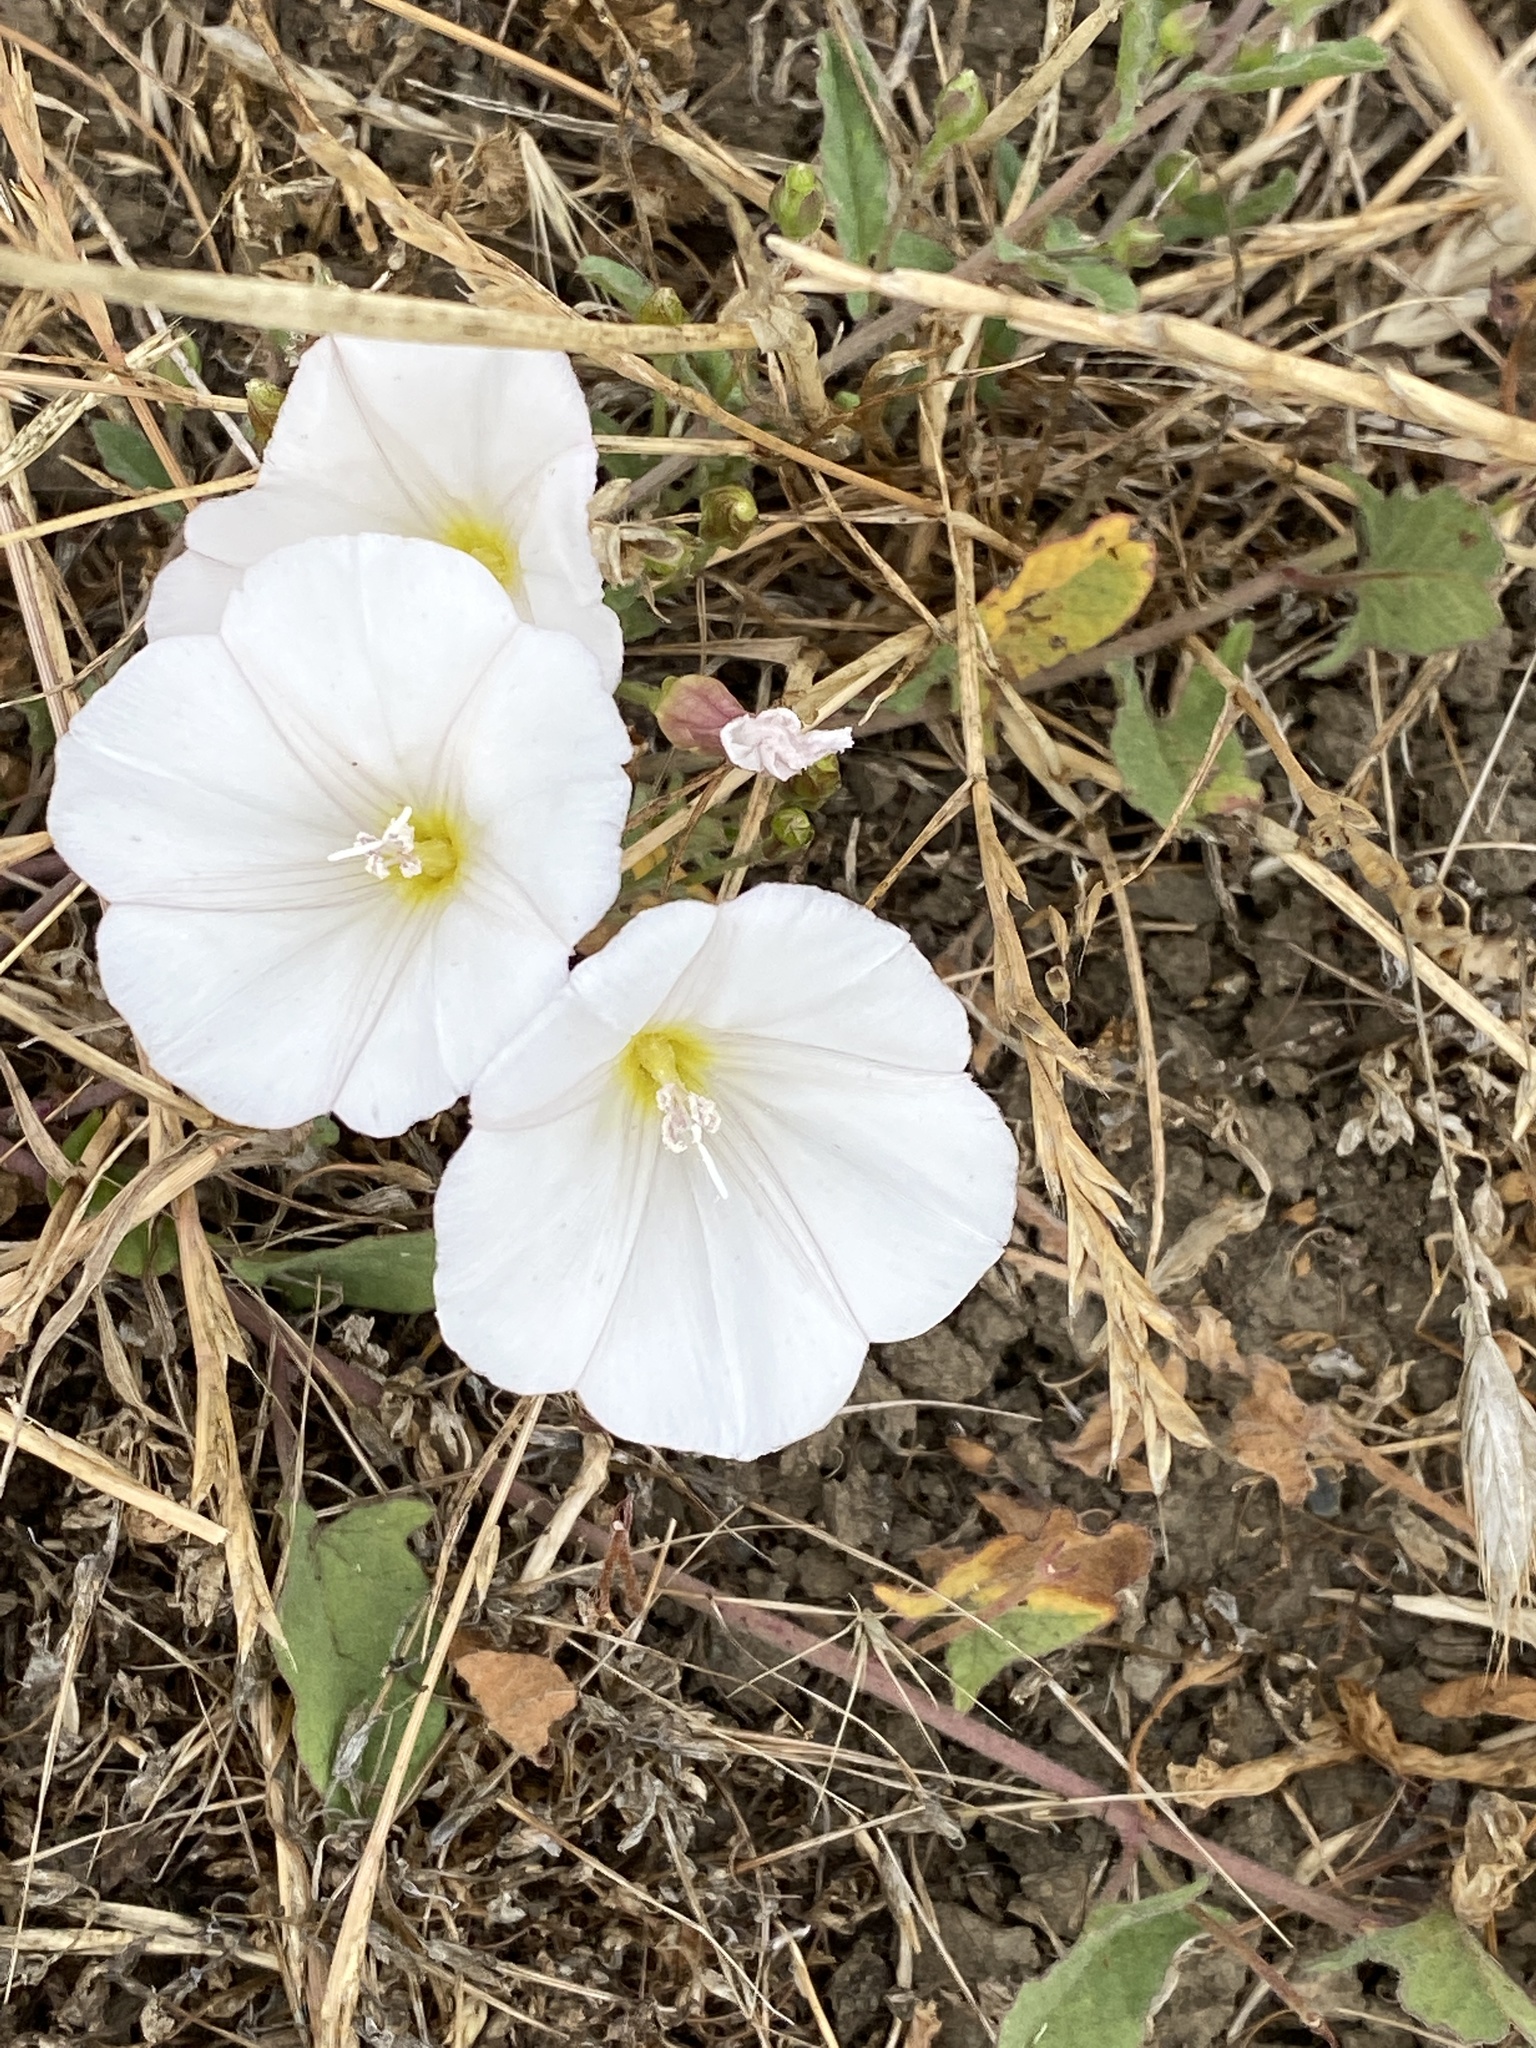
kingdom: Plantae
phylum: Tracheophyta
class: Magnoliopsida
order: Solanales
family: Convolvulaceae
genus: Convolvulus
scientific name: Convolvulus arvensis
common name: Field bindweed
